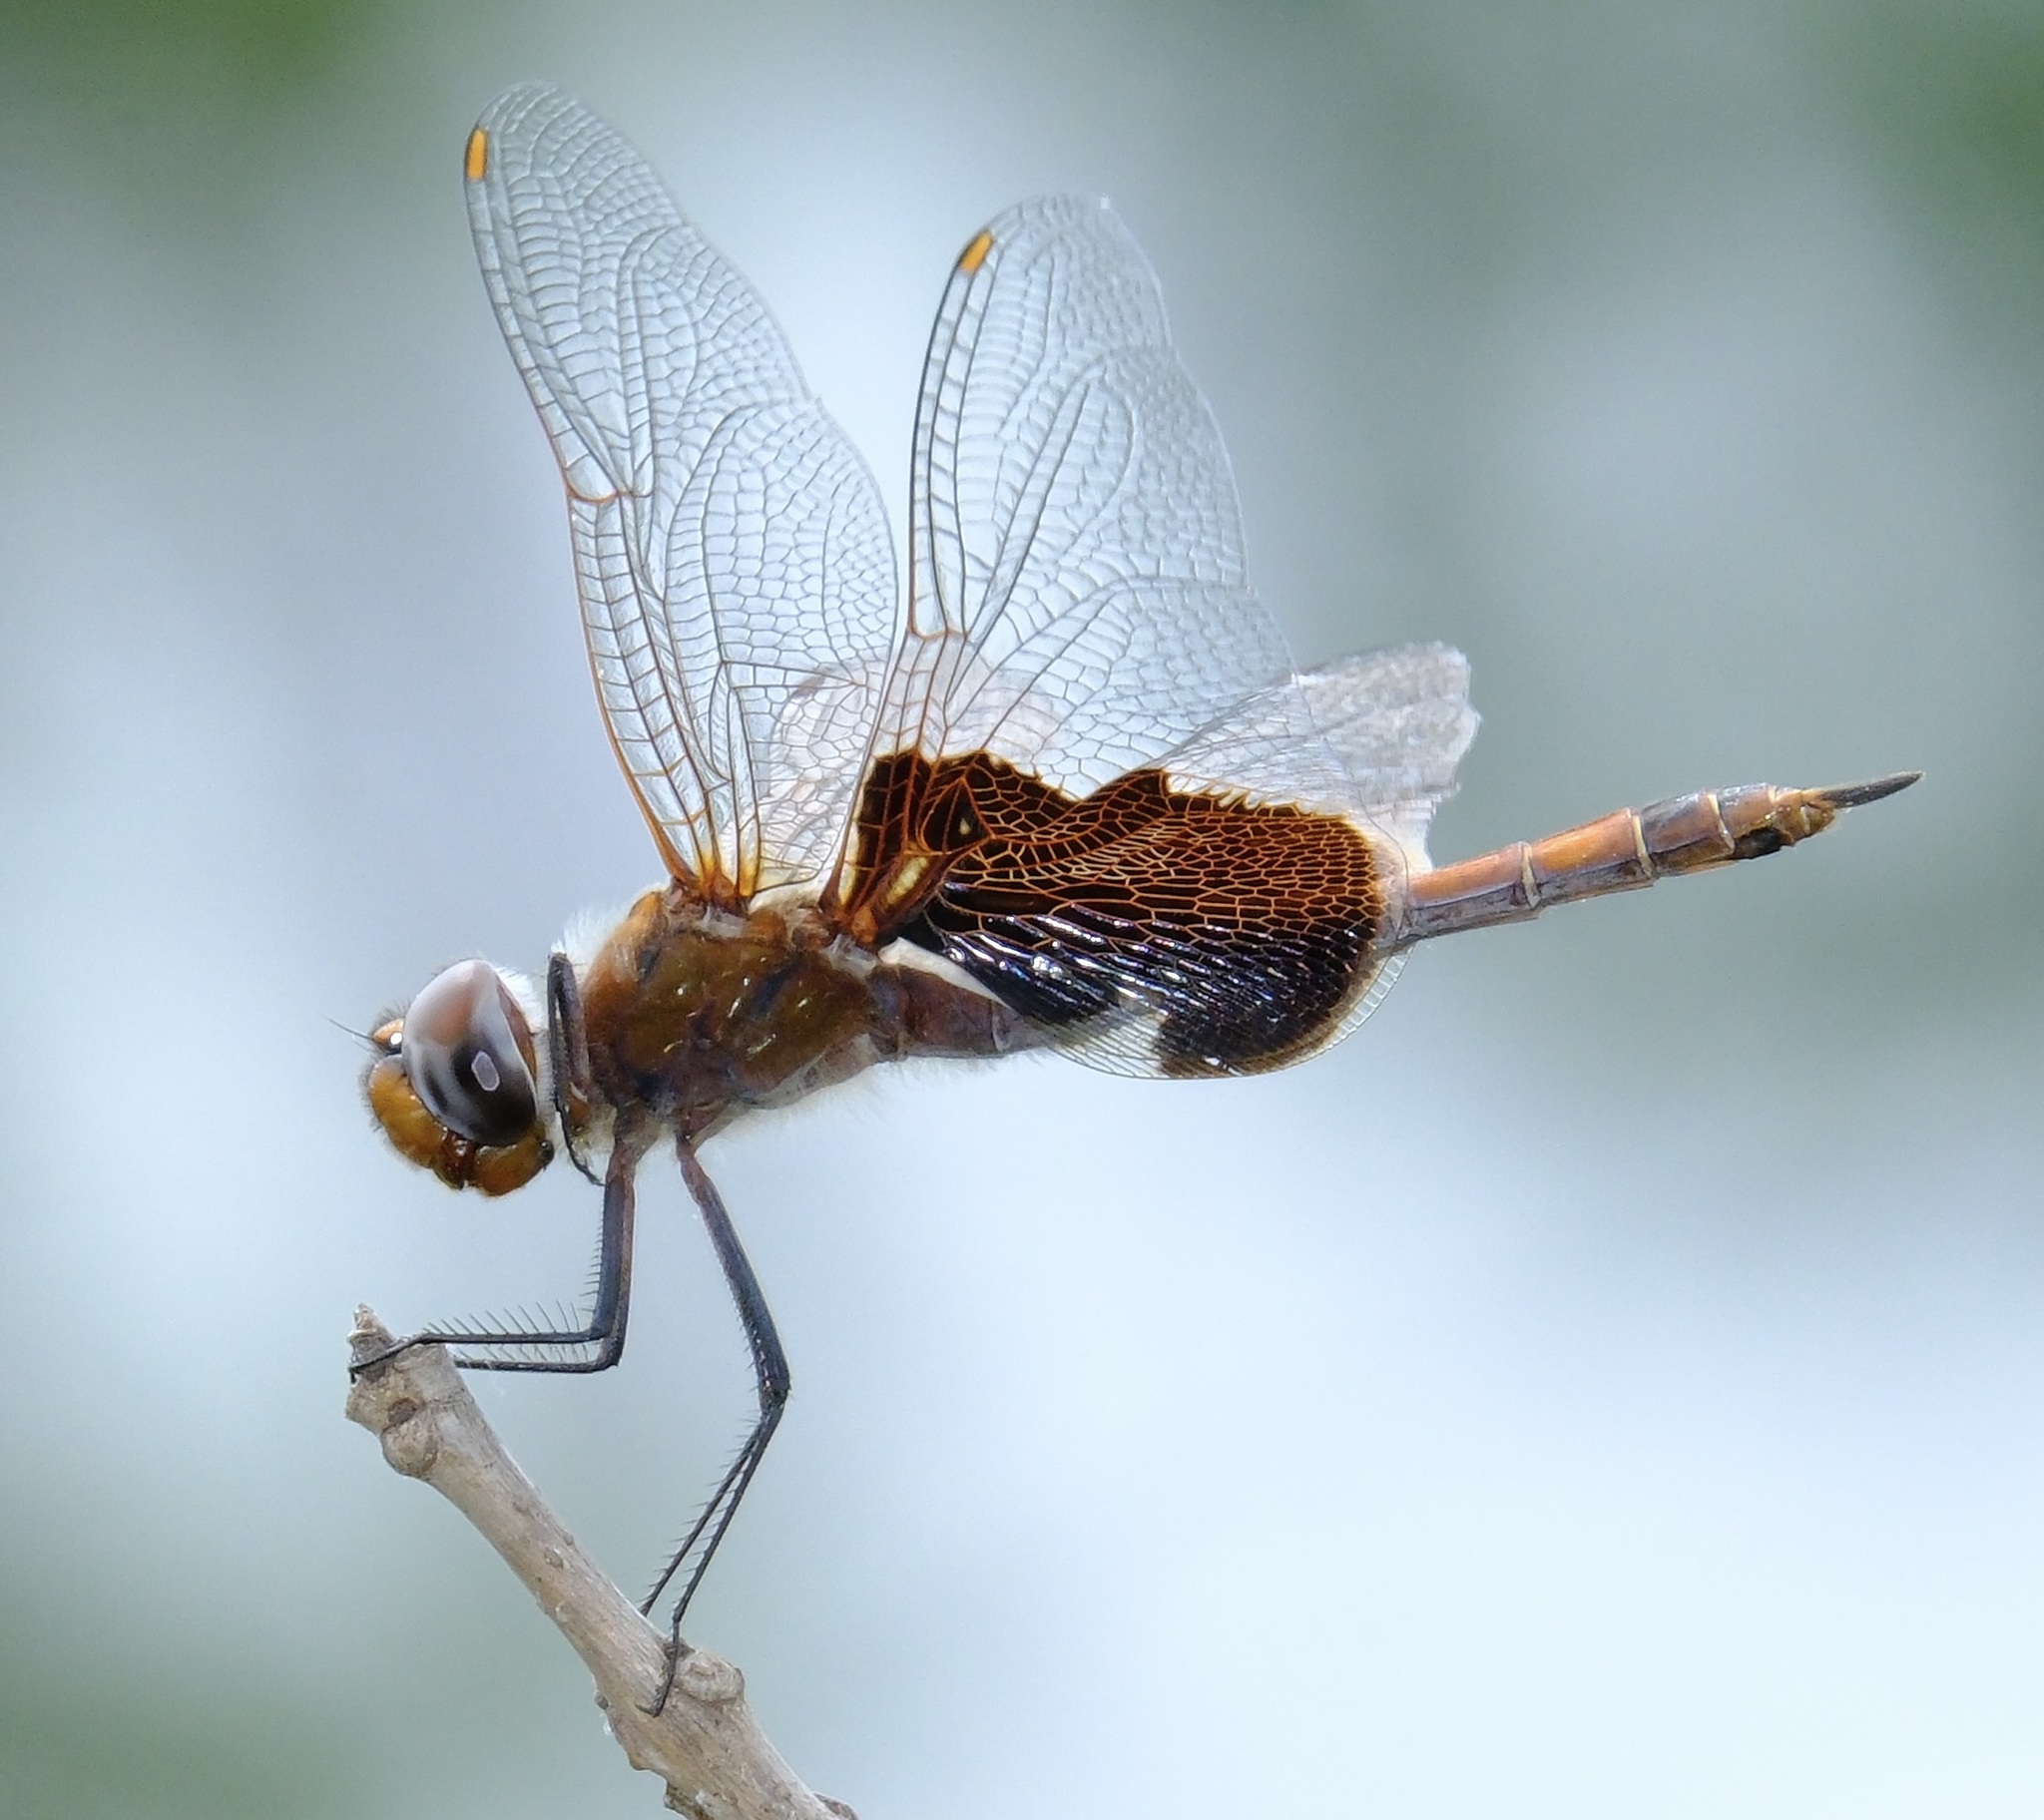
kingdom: Animalia
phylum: Arthropoda
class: Insecta
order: Odonata
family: Libellulidae
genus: Tramea
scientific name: Tramea carolina
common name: Carolina saddlebags
